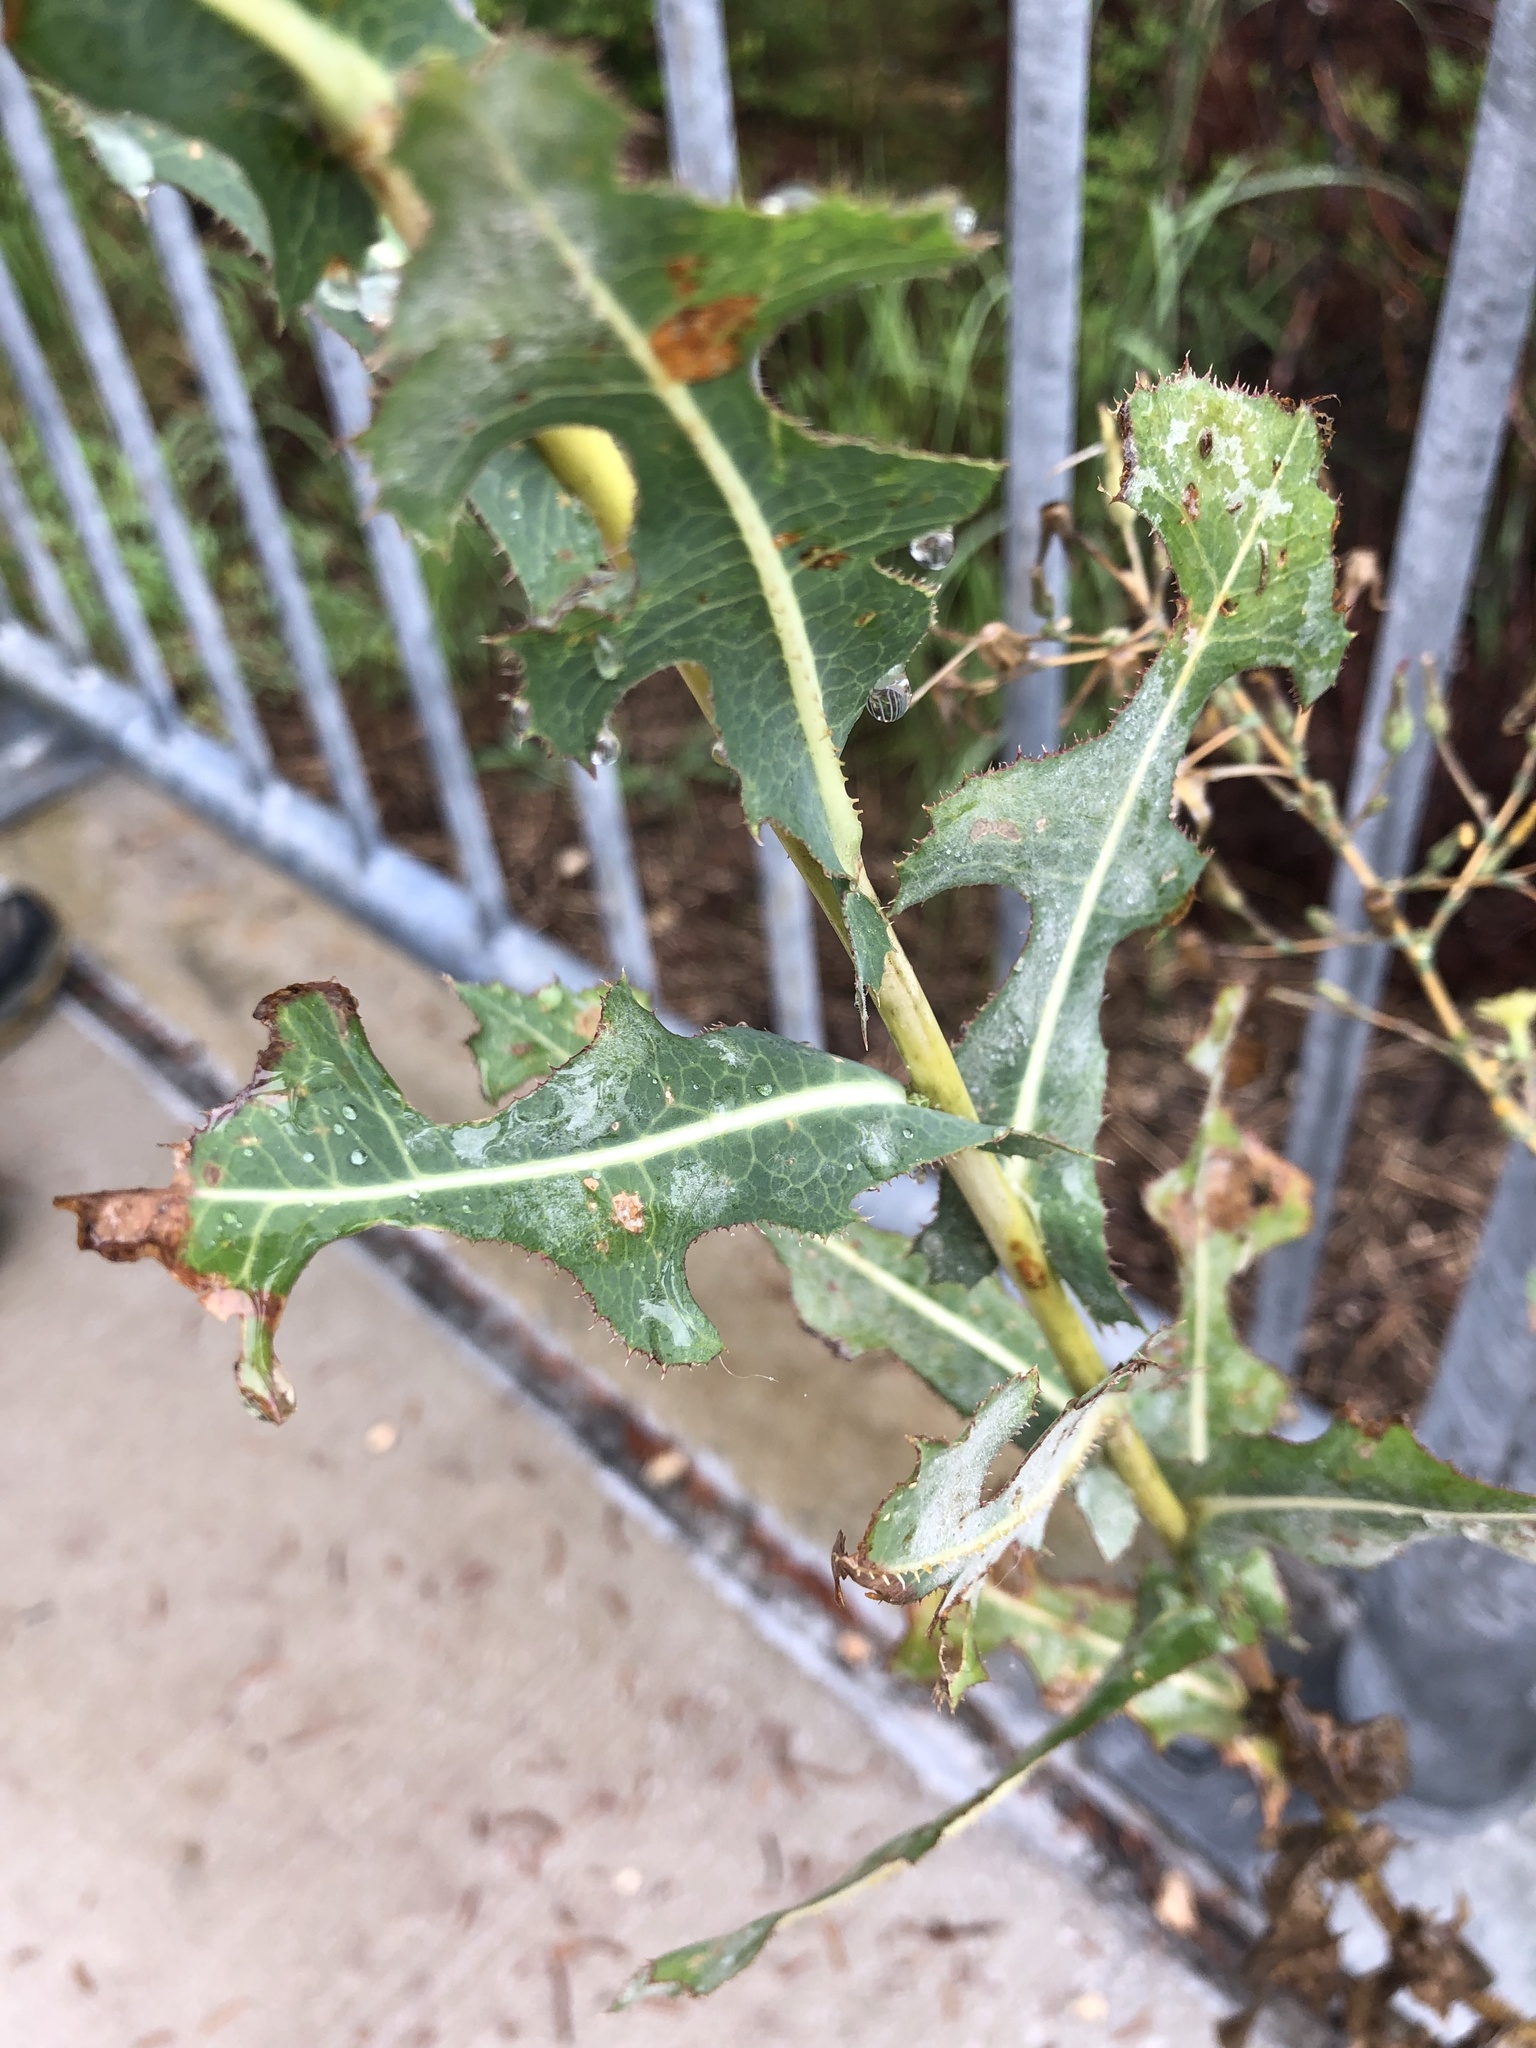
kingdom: Plantae
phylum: Tracheophyta
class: Magnoliopsida
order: Asterales
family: Asteraceae
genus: Lactuca
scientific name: Lactuca serriola
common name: Prickly lettuce
